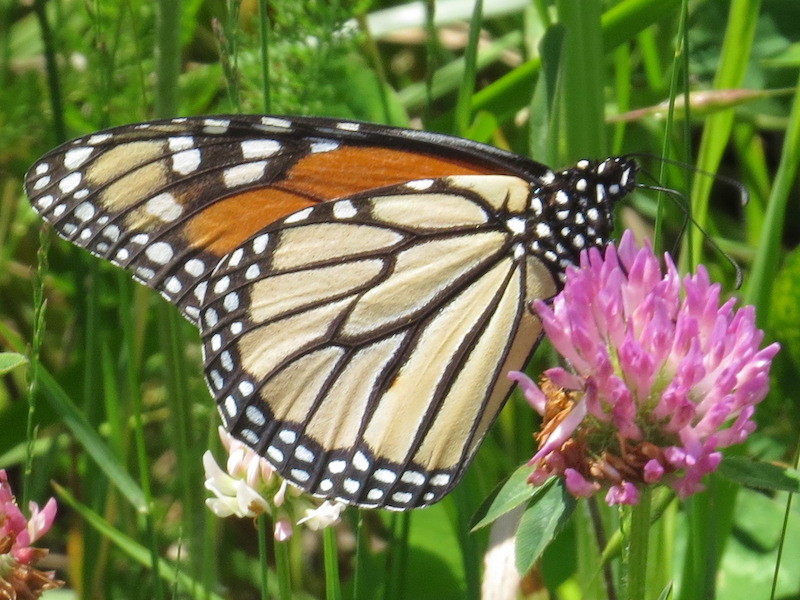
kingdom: Animalia
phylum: Arthropoda
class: Insecta
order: Lepidoptera
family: Nymphalidae
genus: Danaus
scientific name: Danaus plexippus
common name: Monarch
